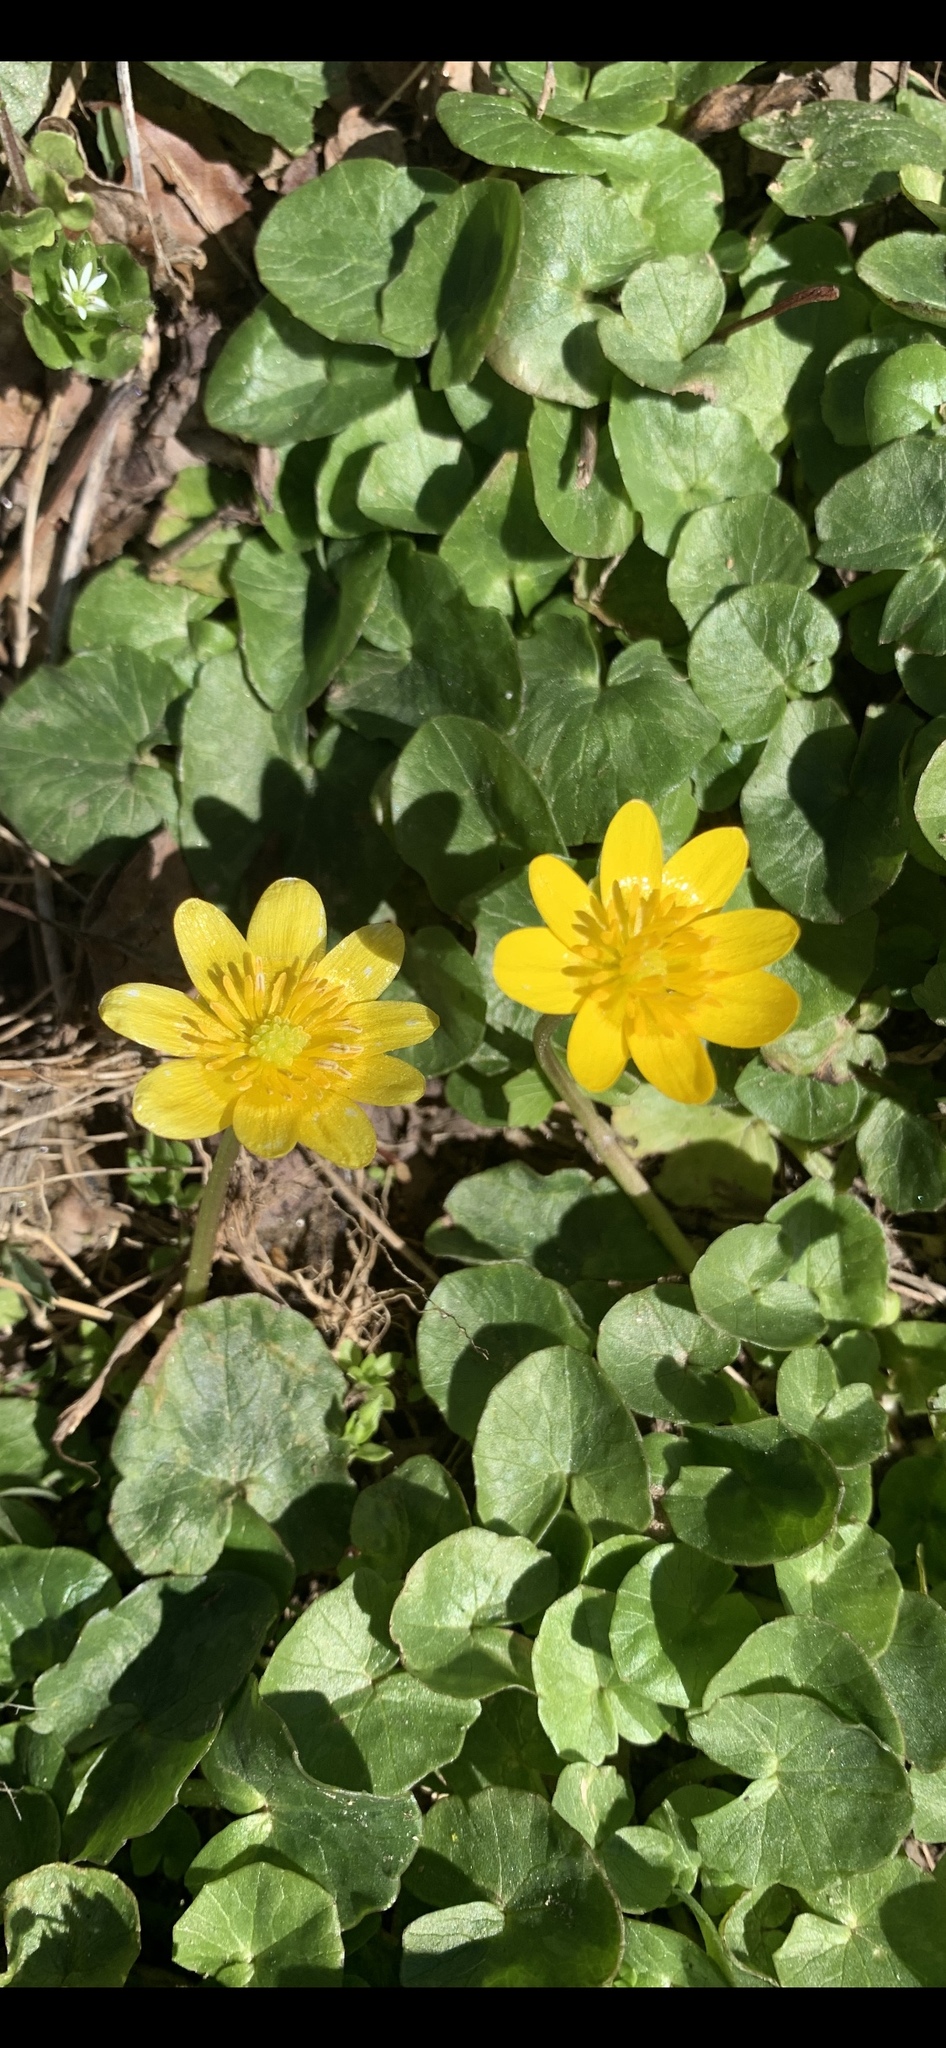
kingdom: Plantae
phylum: Tracheophyta
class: Magnoliopsida
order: Ranunculales
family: Ranunculaceae
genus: Ficaria
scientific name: Ficaria verna
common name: Lesser celandine
